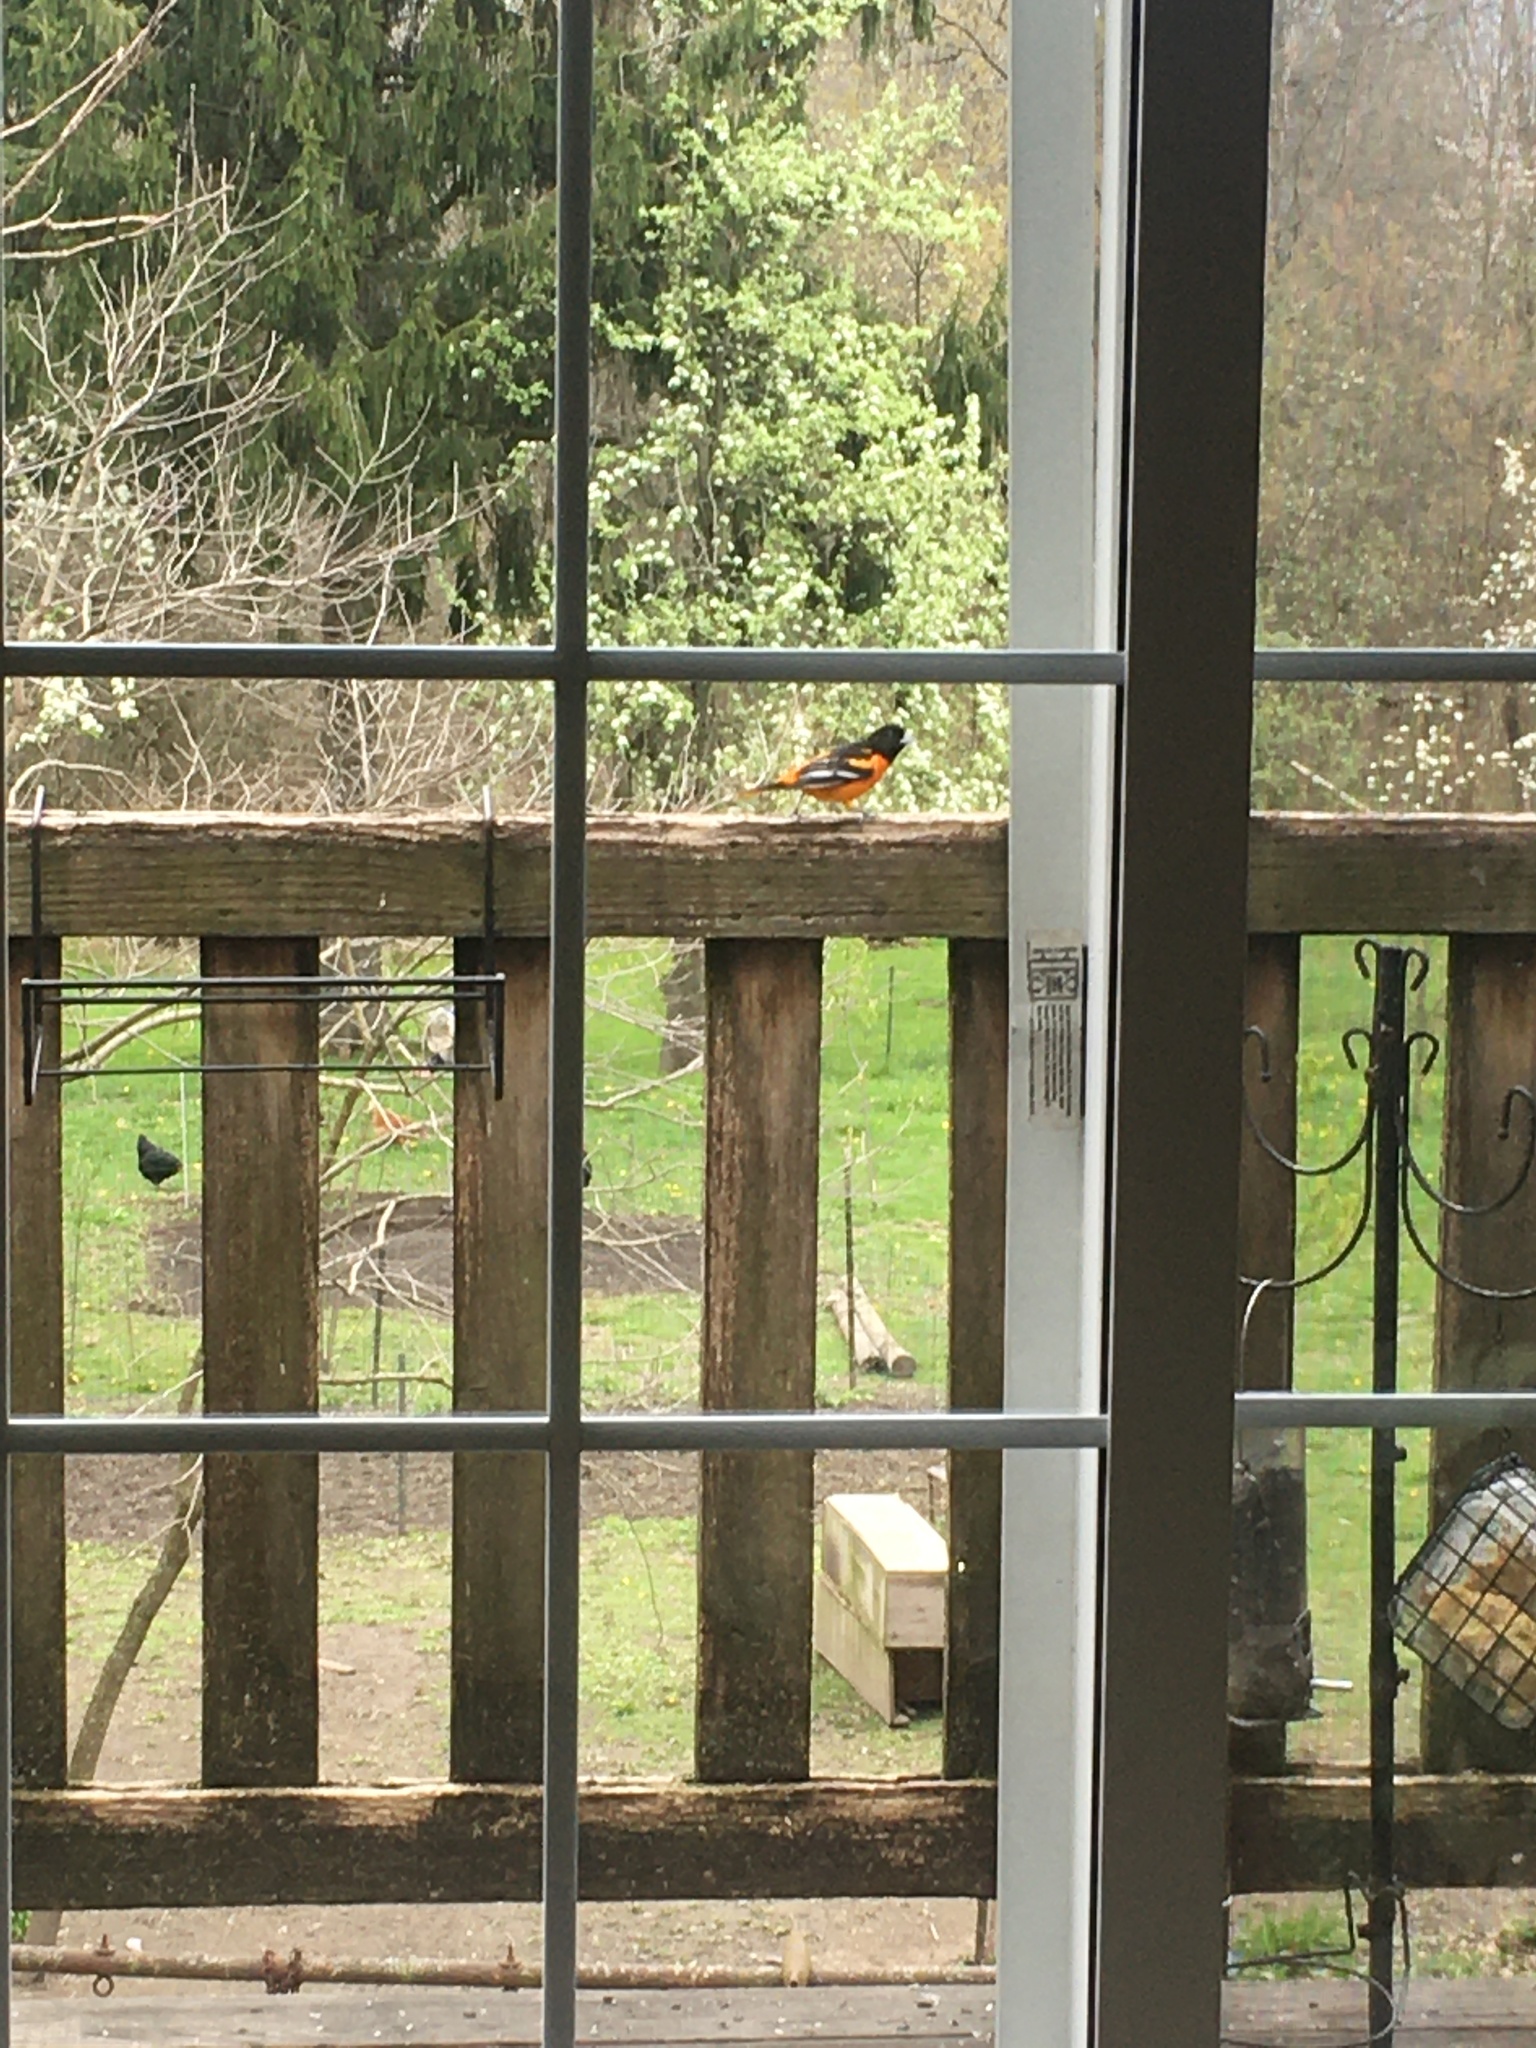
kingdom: Animalia
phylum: Chordata
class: Aves
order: Passeriformes
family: Icteridae
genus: Icterus
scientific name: Icterus galbula
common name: Baltimore oriole
